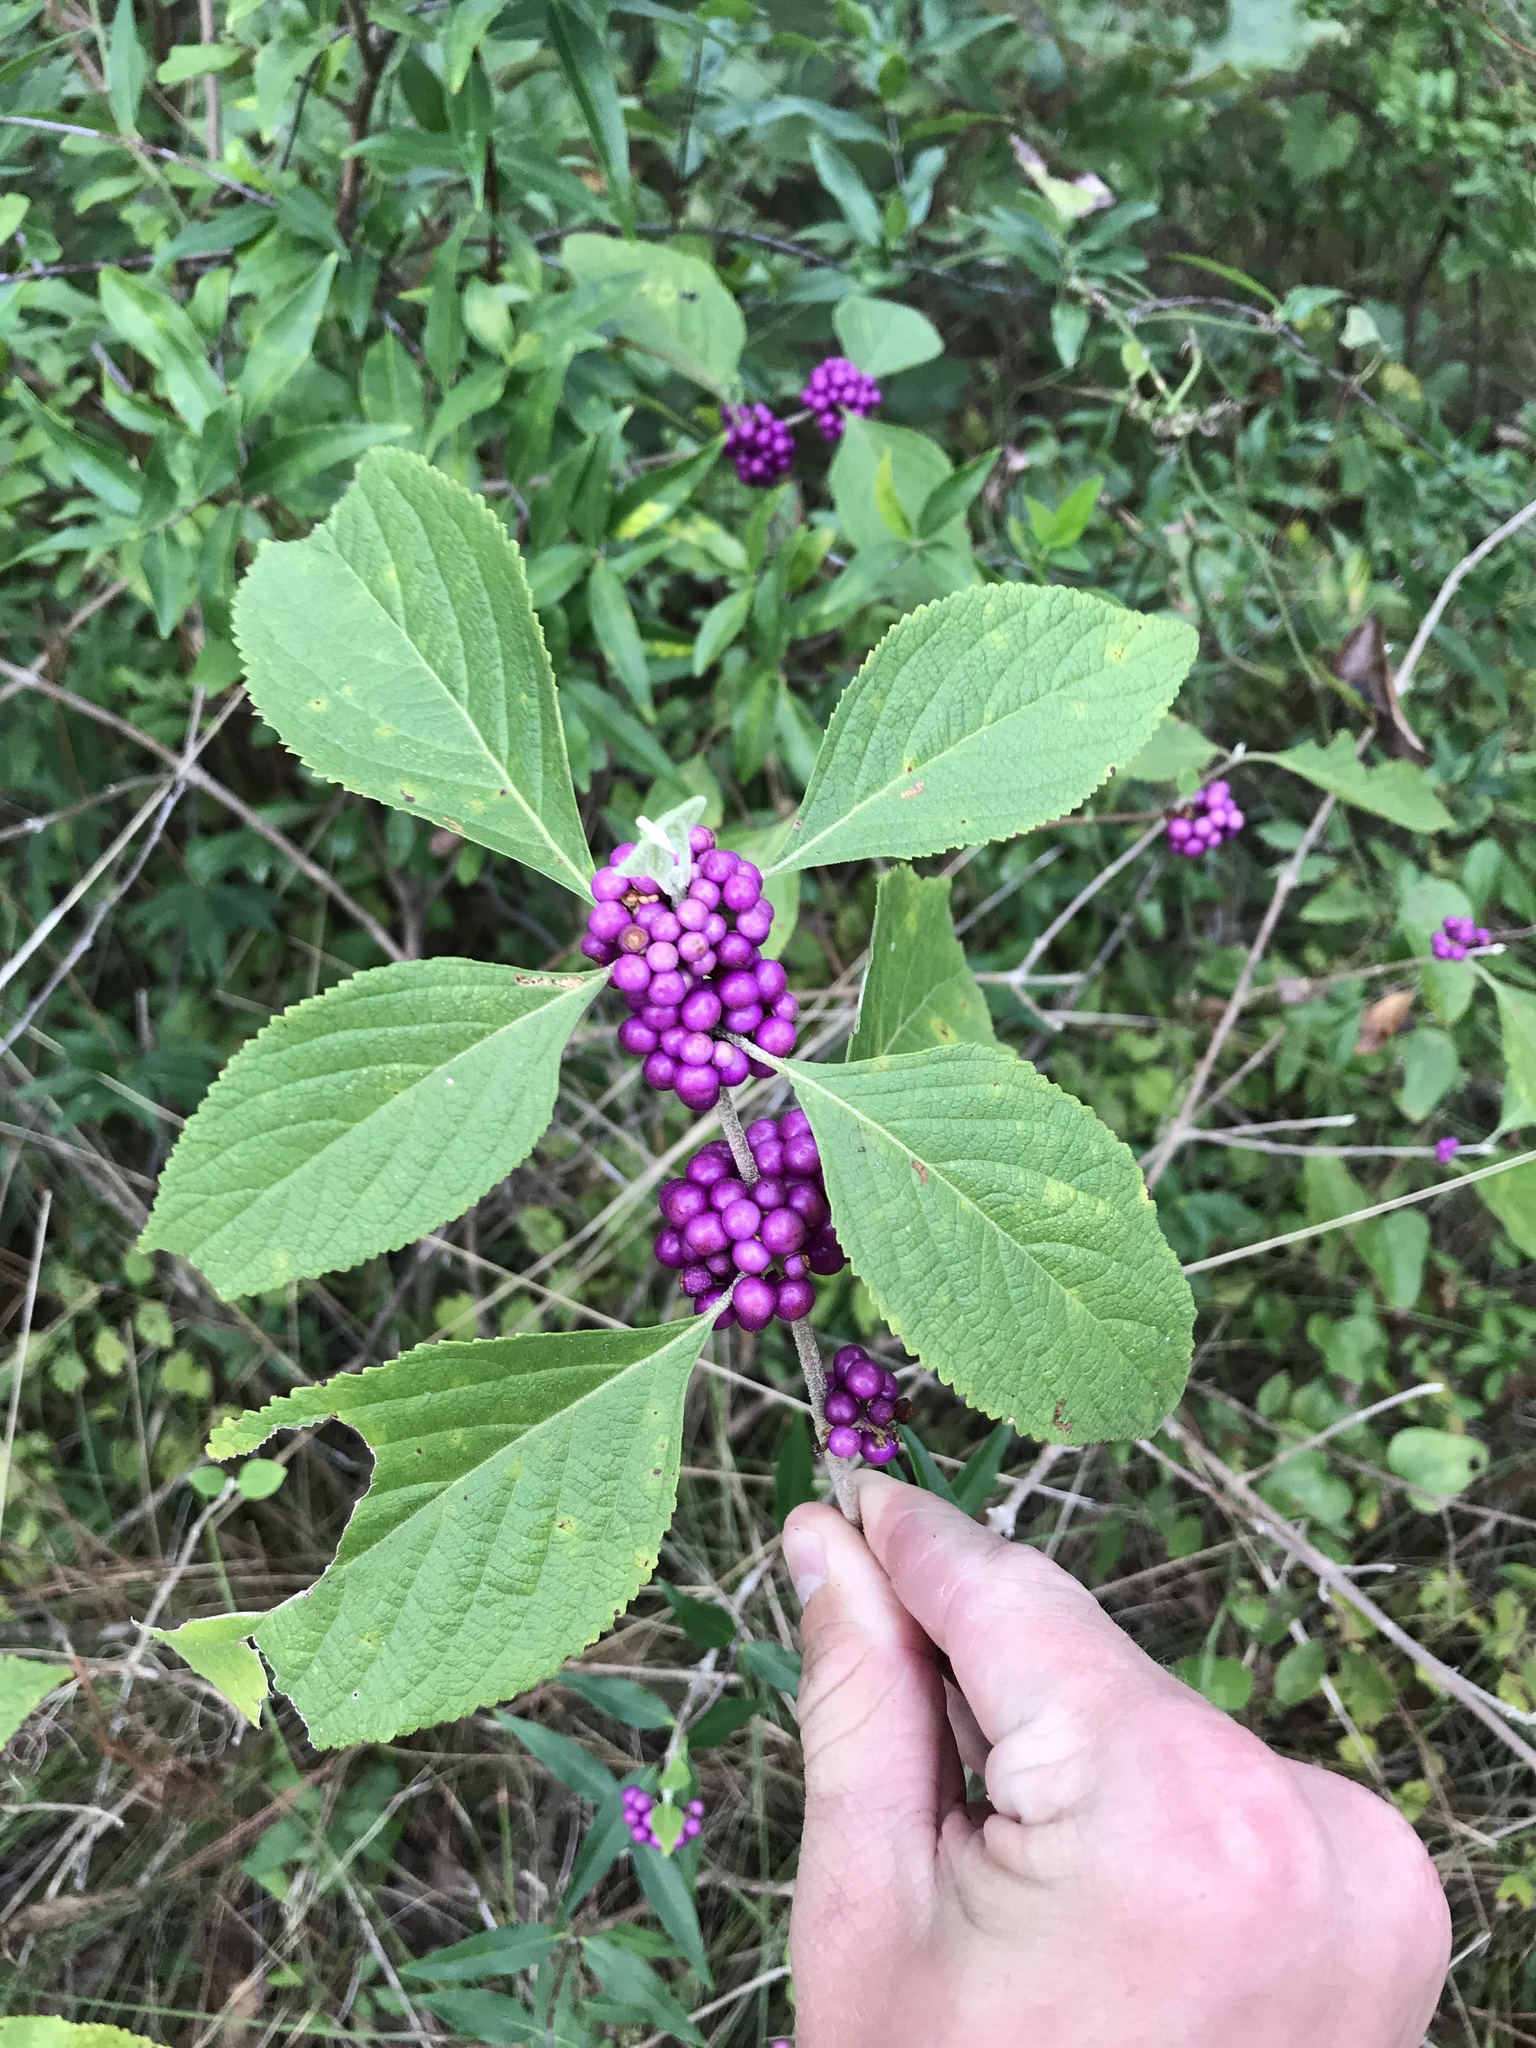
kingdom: Plantae
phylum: Tracheophyta
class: Magnoliopsida
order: Lamiales
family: Lamiaceae
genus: Callicarpa
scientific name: Callicarpa americana
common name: American beautyberry
